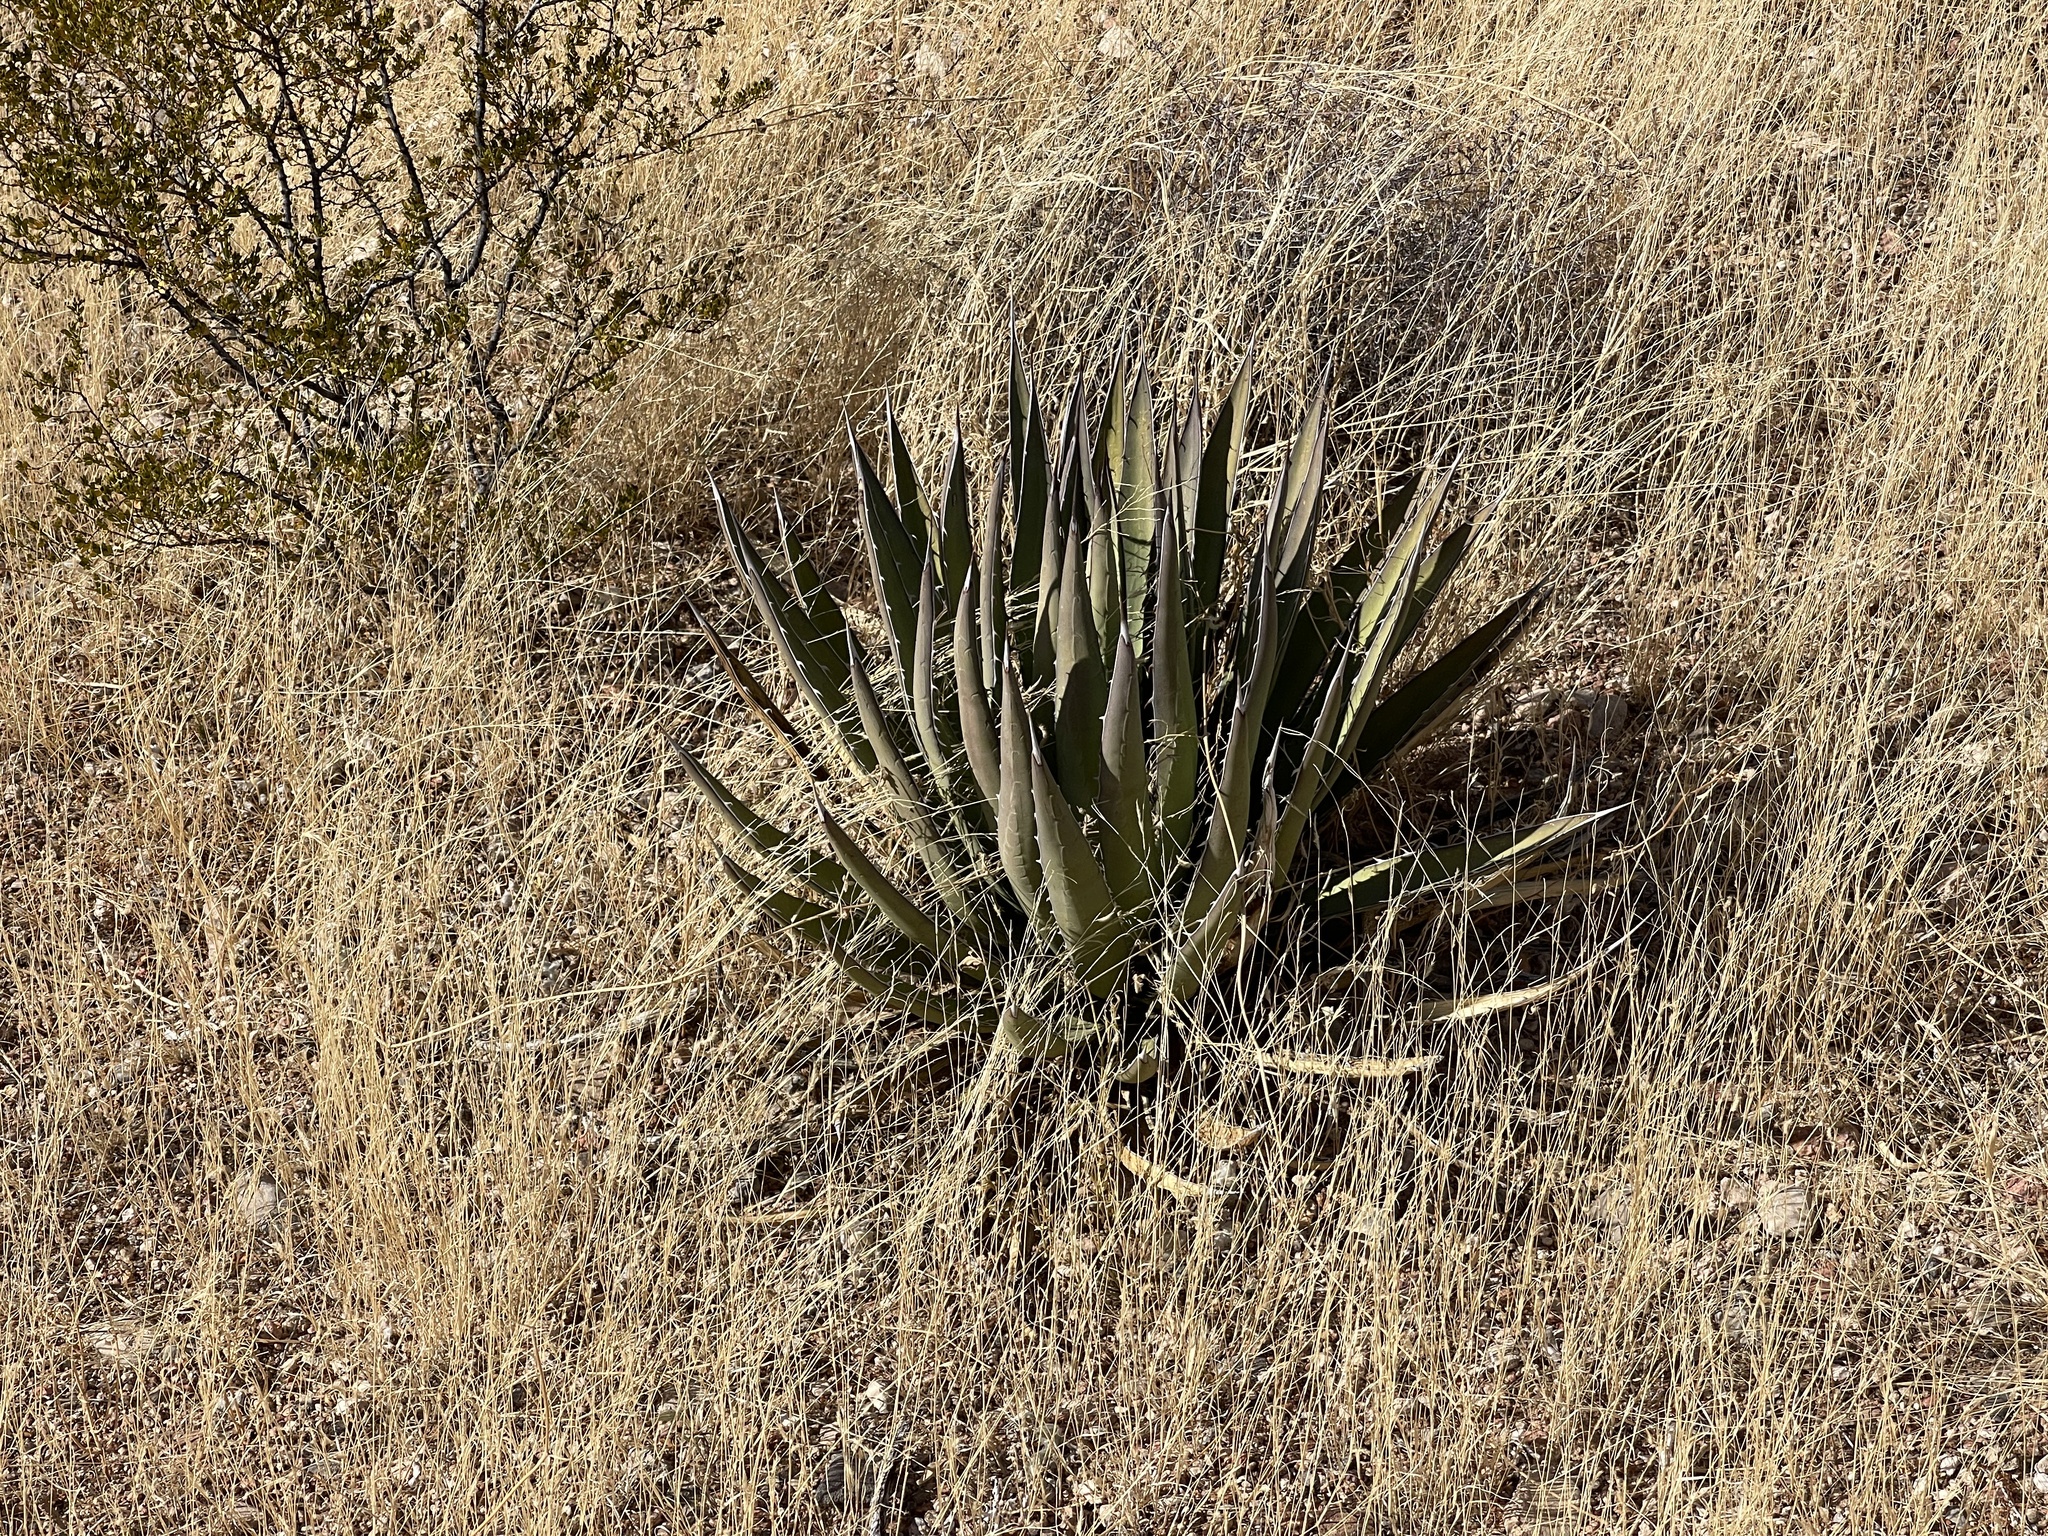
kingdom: Plantae
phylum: Tracheophyta
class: Liliopsida
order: Asparagales
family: Asparagaceae
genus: Agave
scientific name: Agave lechuguilla
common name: Lecheguilla agave
